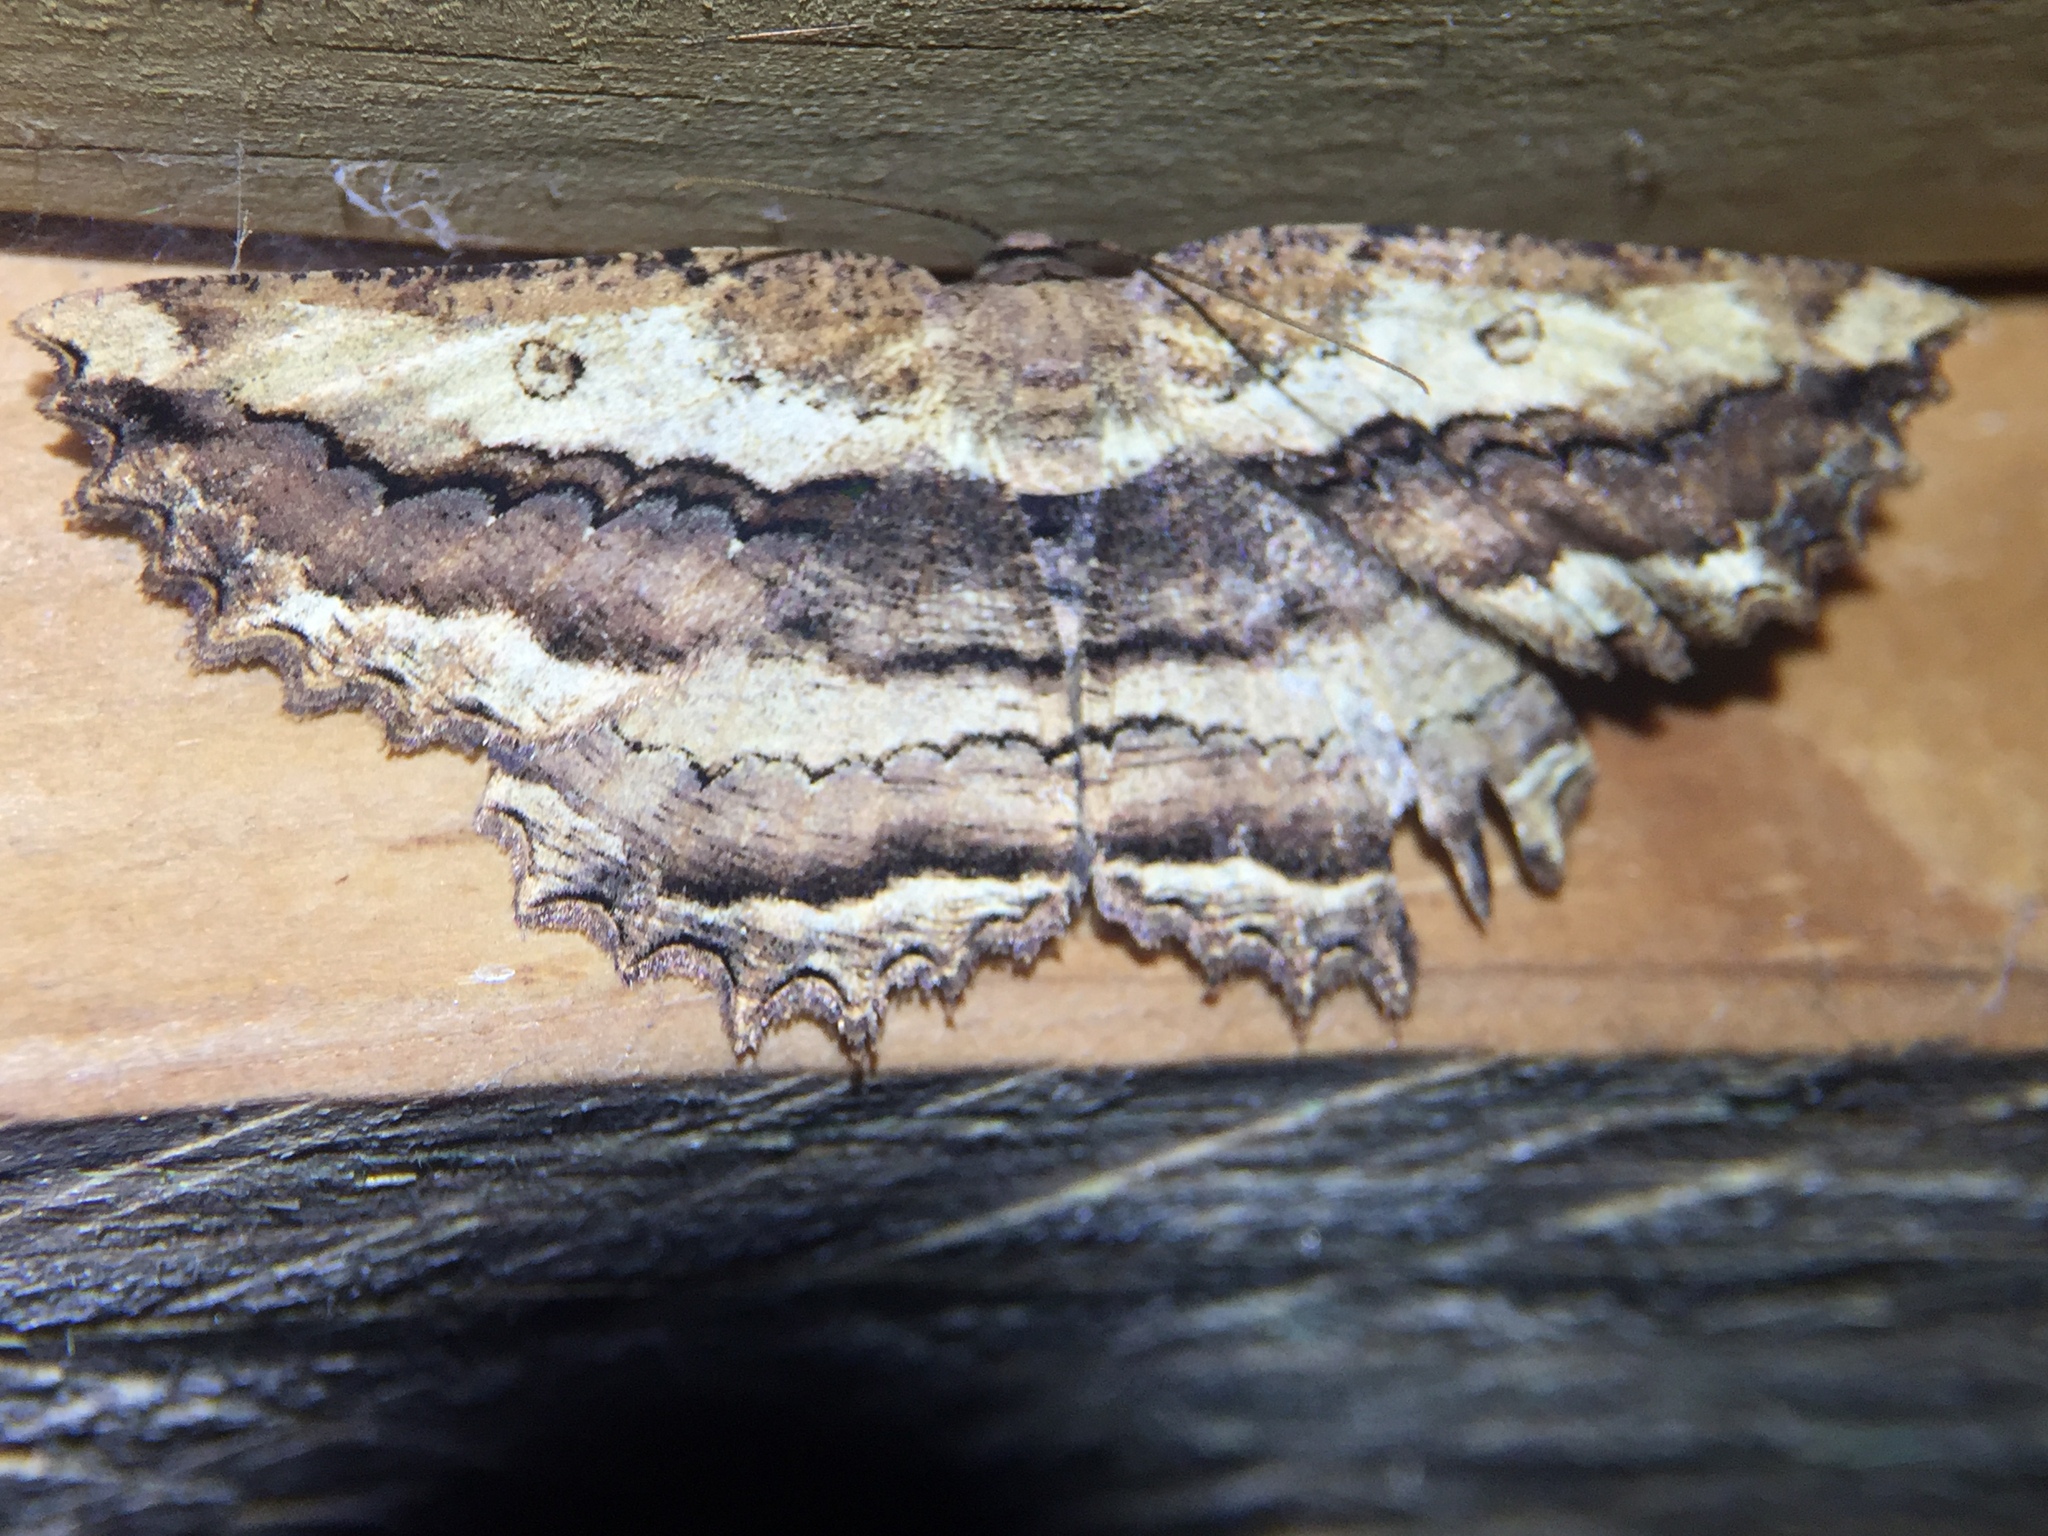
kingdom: Animalia
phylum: Arthropoda
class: Insecta
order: Lepidoptera
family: Geometridae
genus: Gellonia
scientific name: Gellonia pannularia
